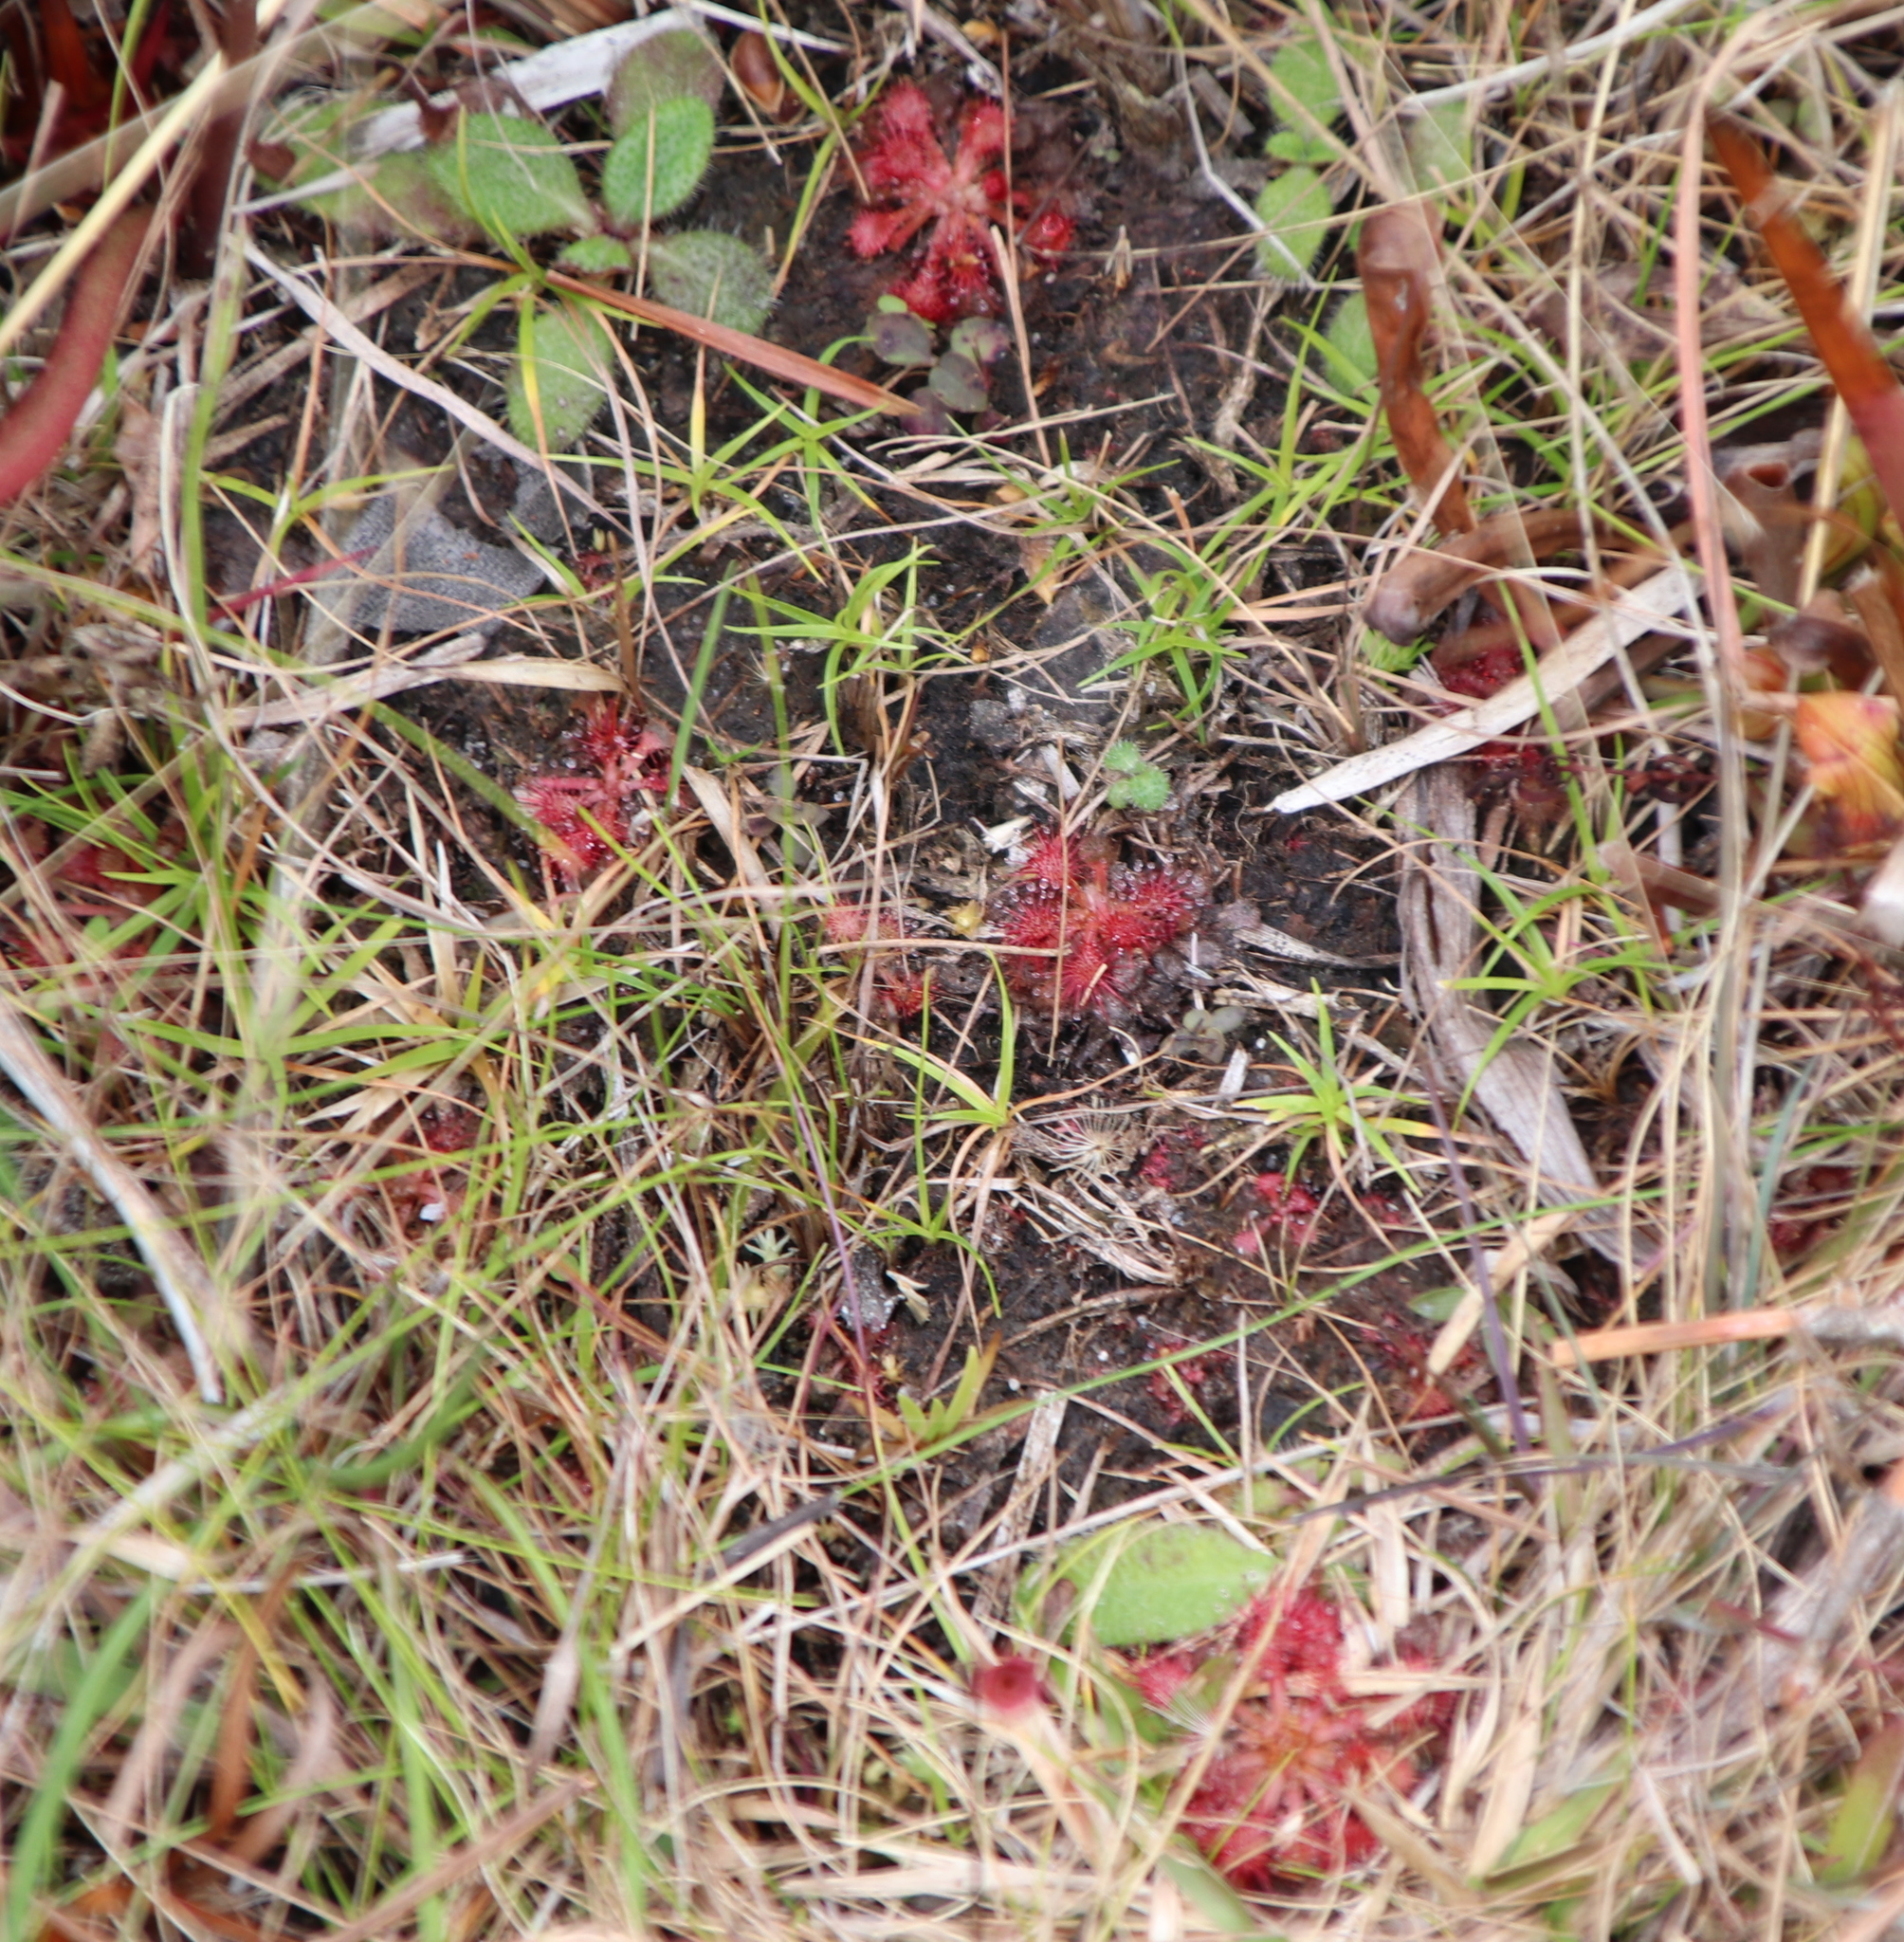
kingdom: Plantae
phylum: Tracheophyta
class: Magnoliopsida
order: Caryophyllales
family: Droseraceae
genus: Drosera
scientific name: Drosera capillaris
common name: Pink sundew
